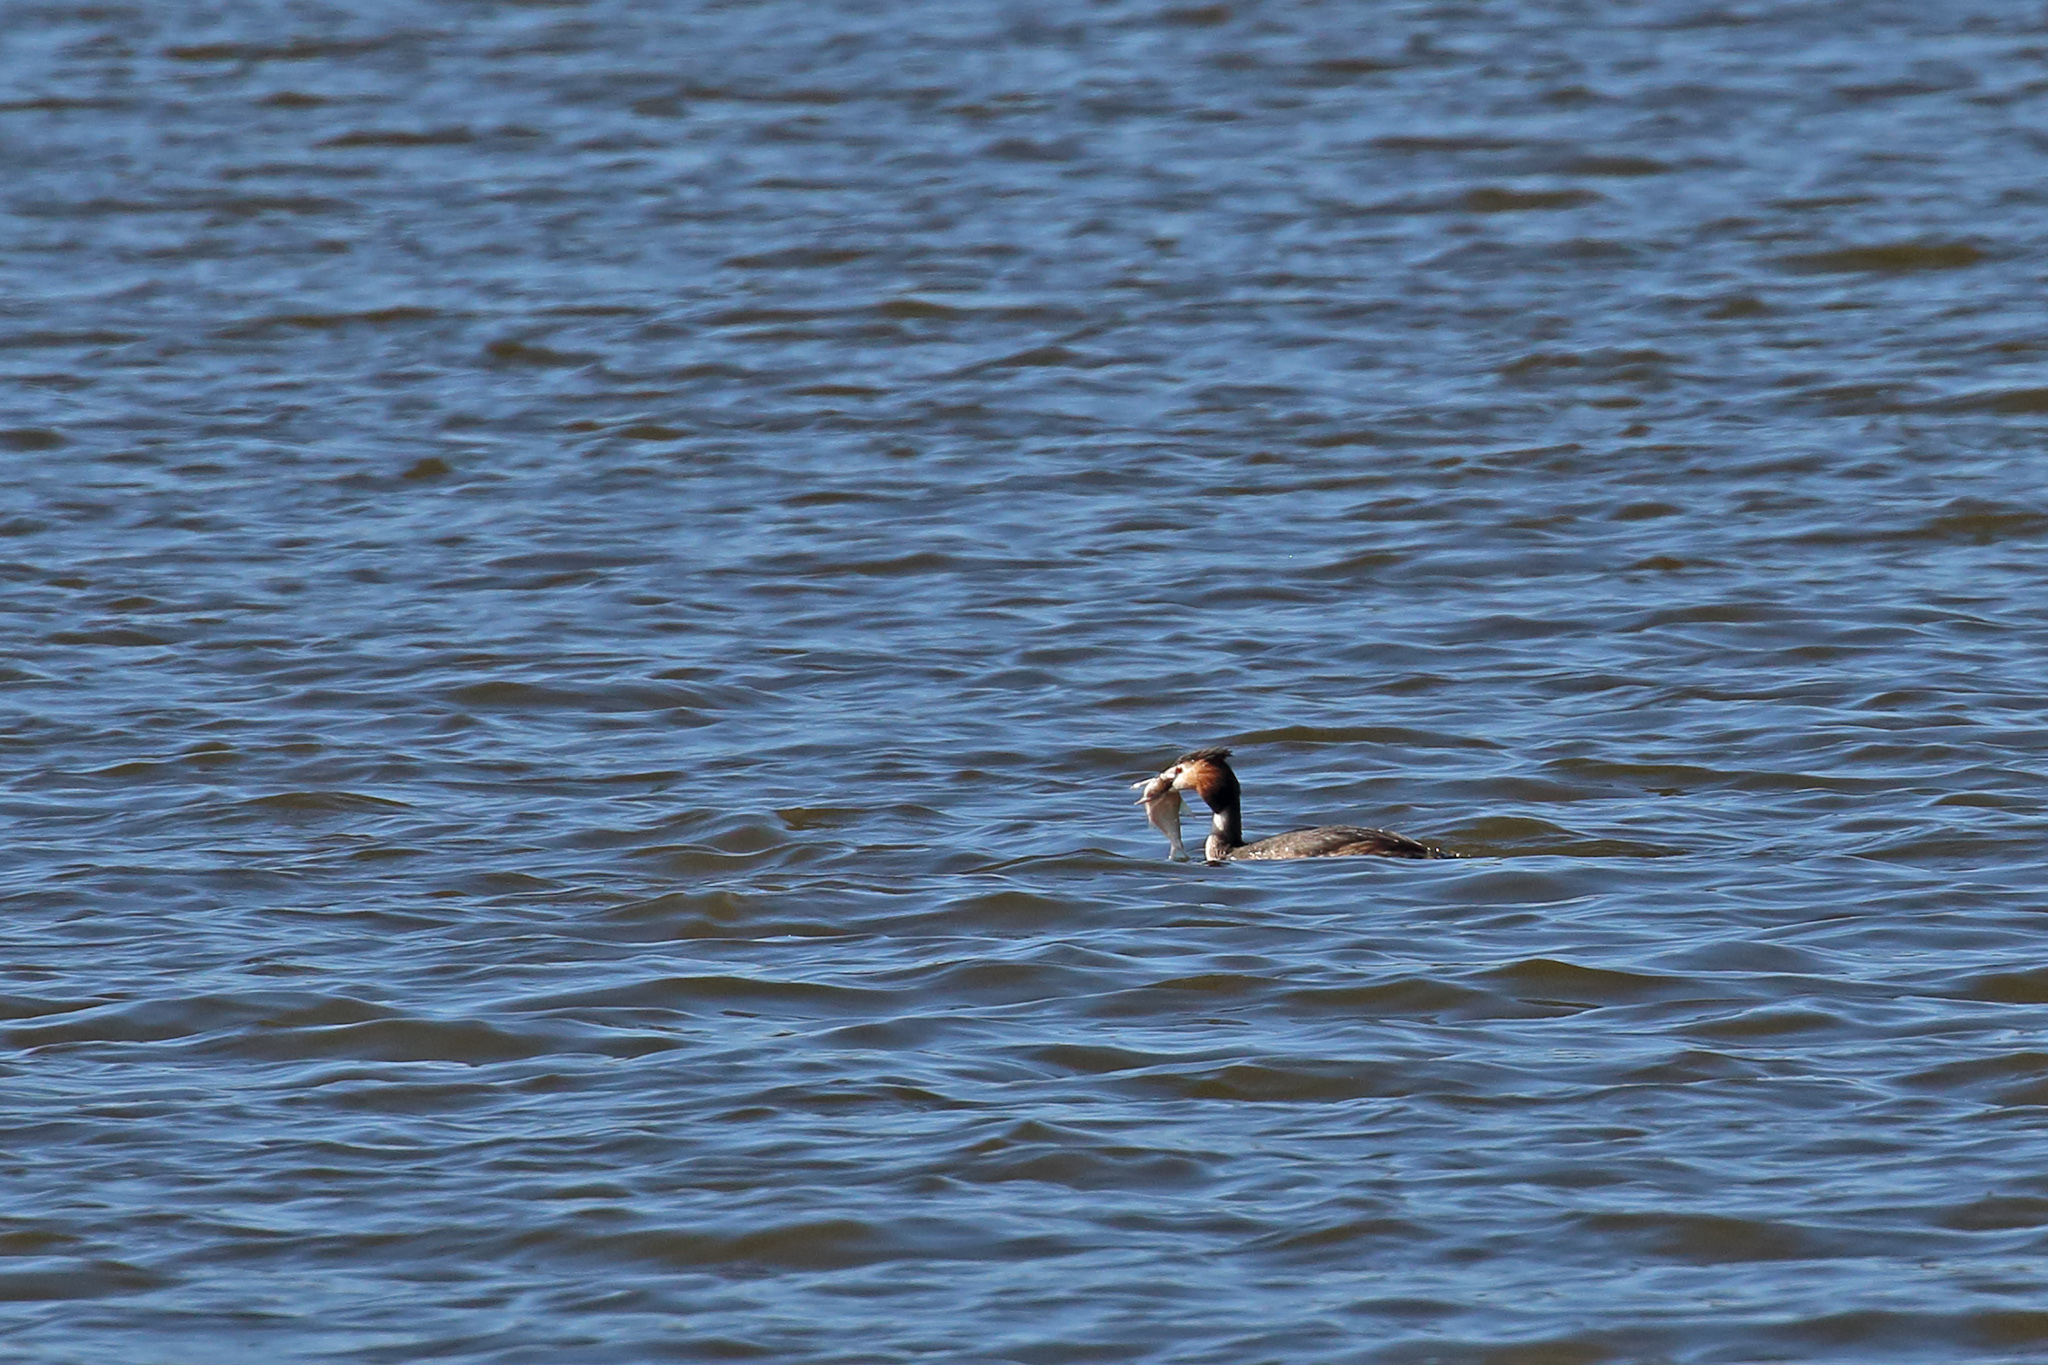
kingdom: Animalia
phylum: Chordata
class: Aves
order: Podicipediformes
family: Podicipedidae
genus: Podiceps
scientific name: Podiceps cristatus
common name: Great crested grebe
